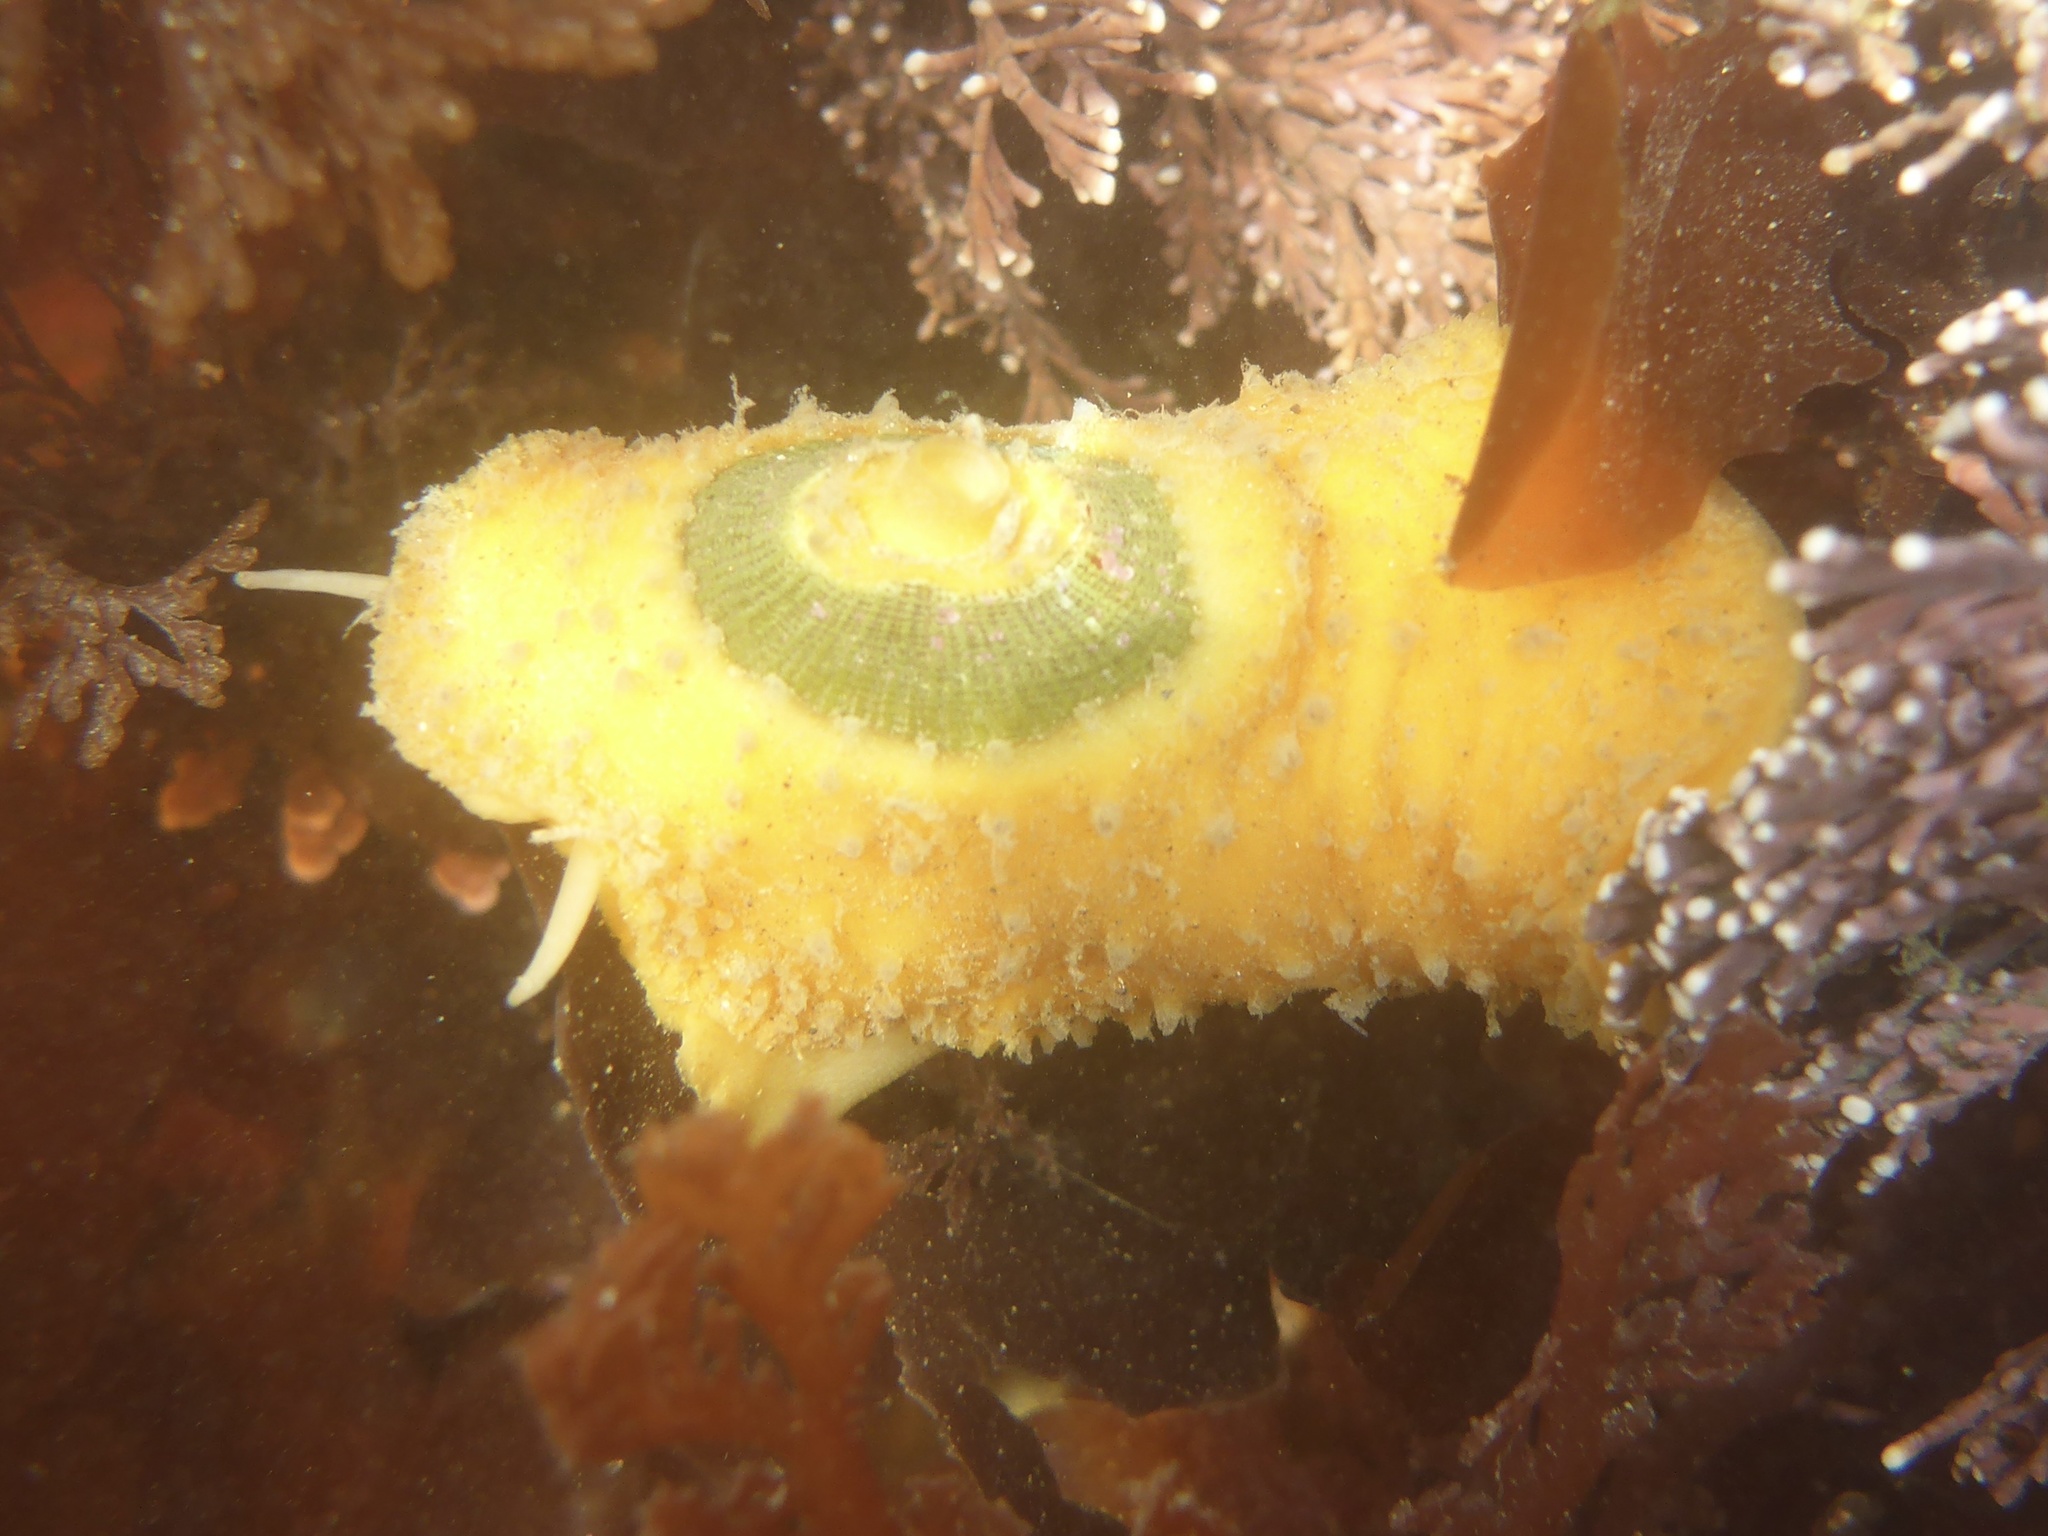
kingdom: Animalia
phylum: Mollusca
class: Gastropoda
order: Lepetellida
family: Fissurellidae
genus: Fissurellidea
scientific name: Fissurellidea bimaculata
